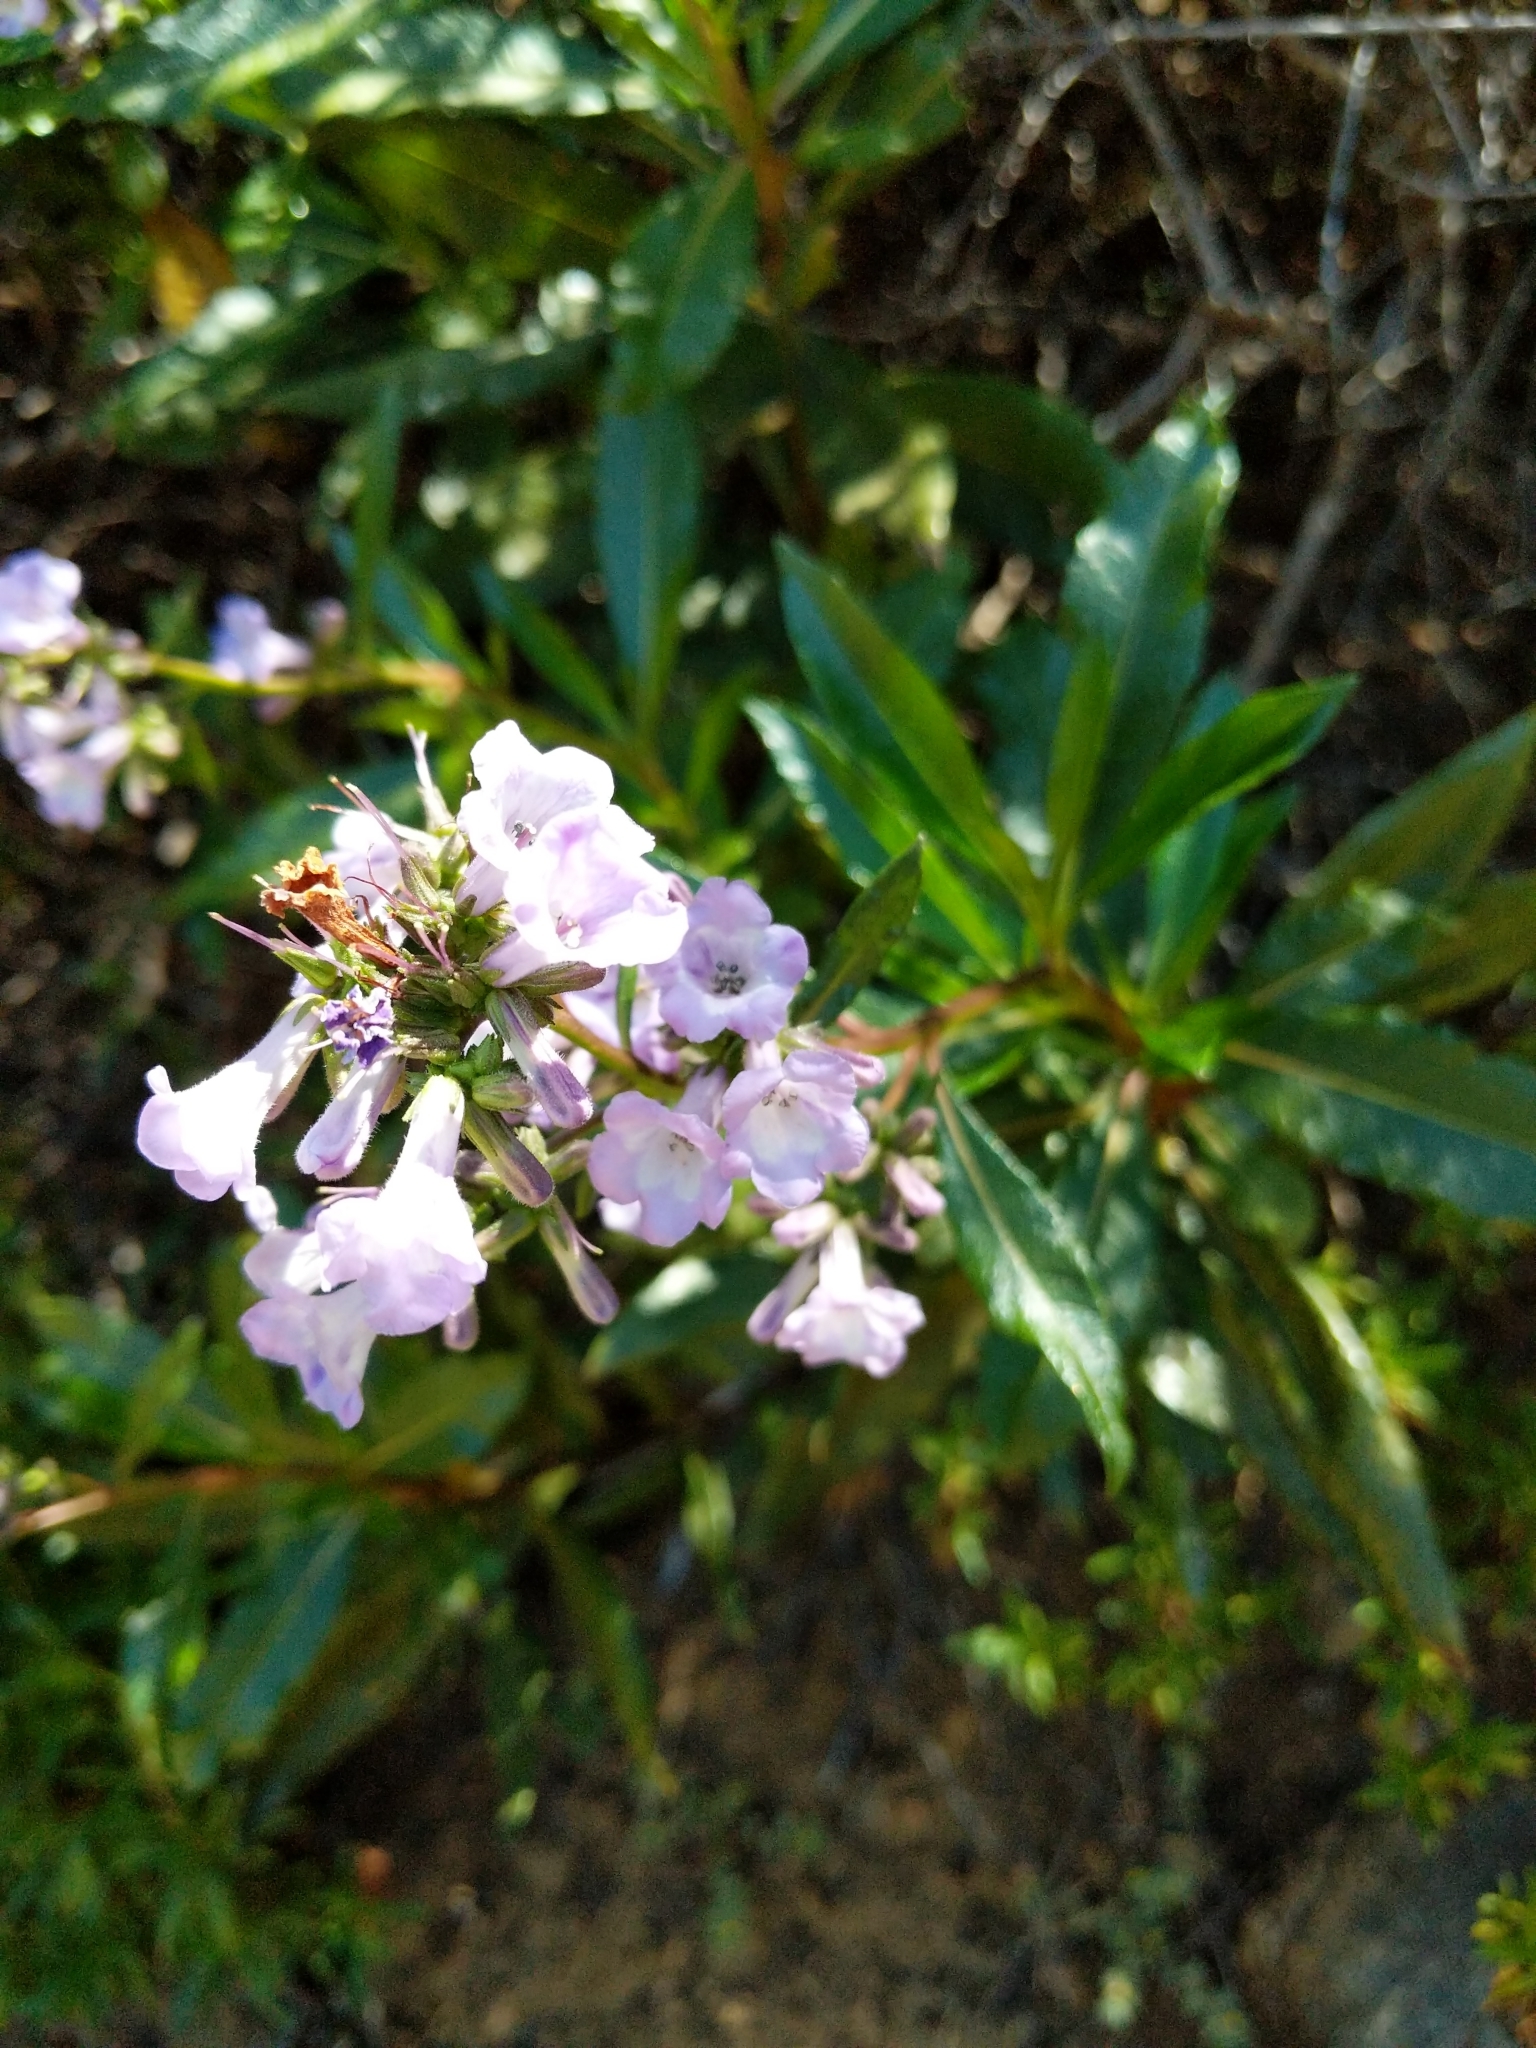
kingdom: Plantae
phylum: Tracheophyta
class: Magnoliopsida
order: Boraginales
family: Namaceae
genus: Eriodictyon
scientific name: Eriodictyon californicum
